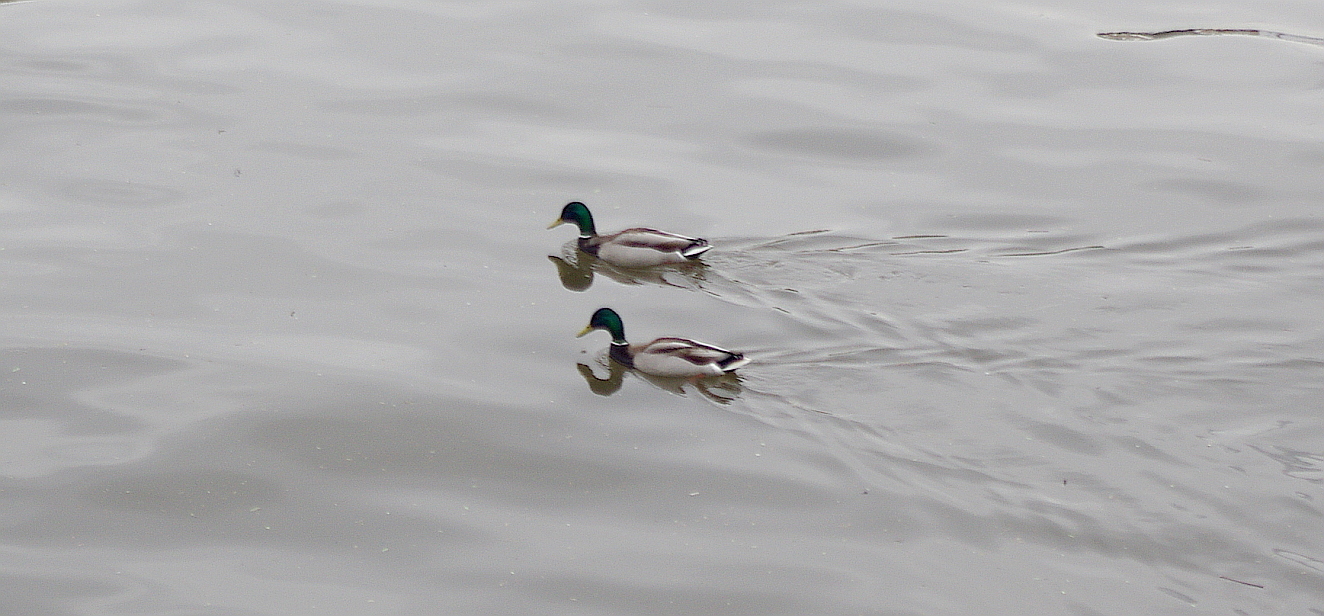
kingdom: Animalia
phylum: Chordata
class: Aves
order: Anseriformes
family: Anatidae
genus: Anas
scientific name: Anas platyrhynchos
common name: Mallard
